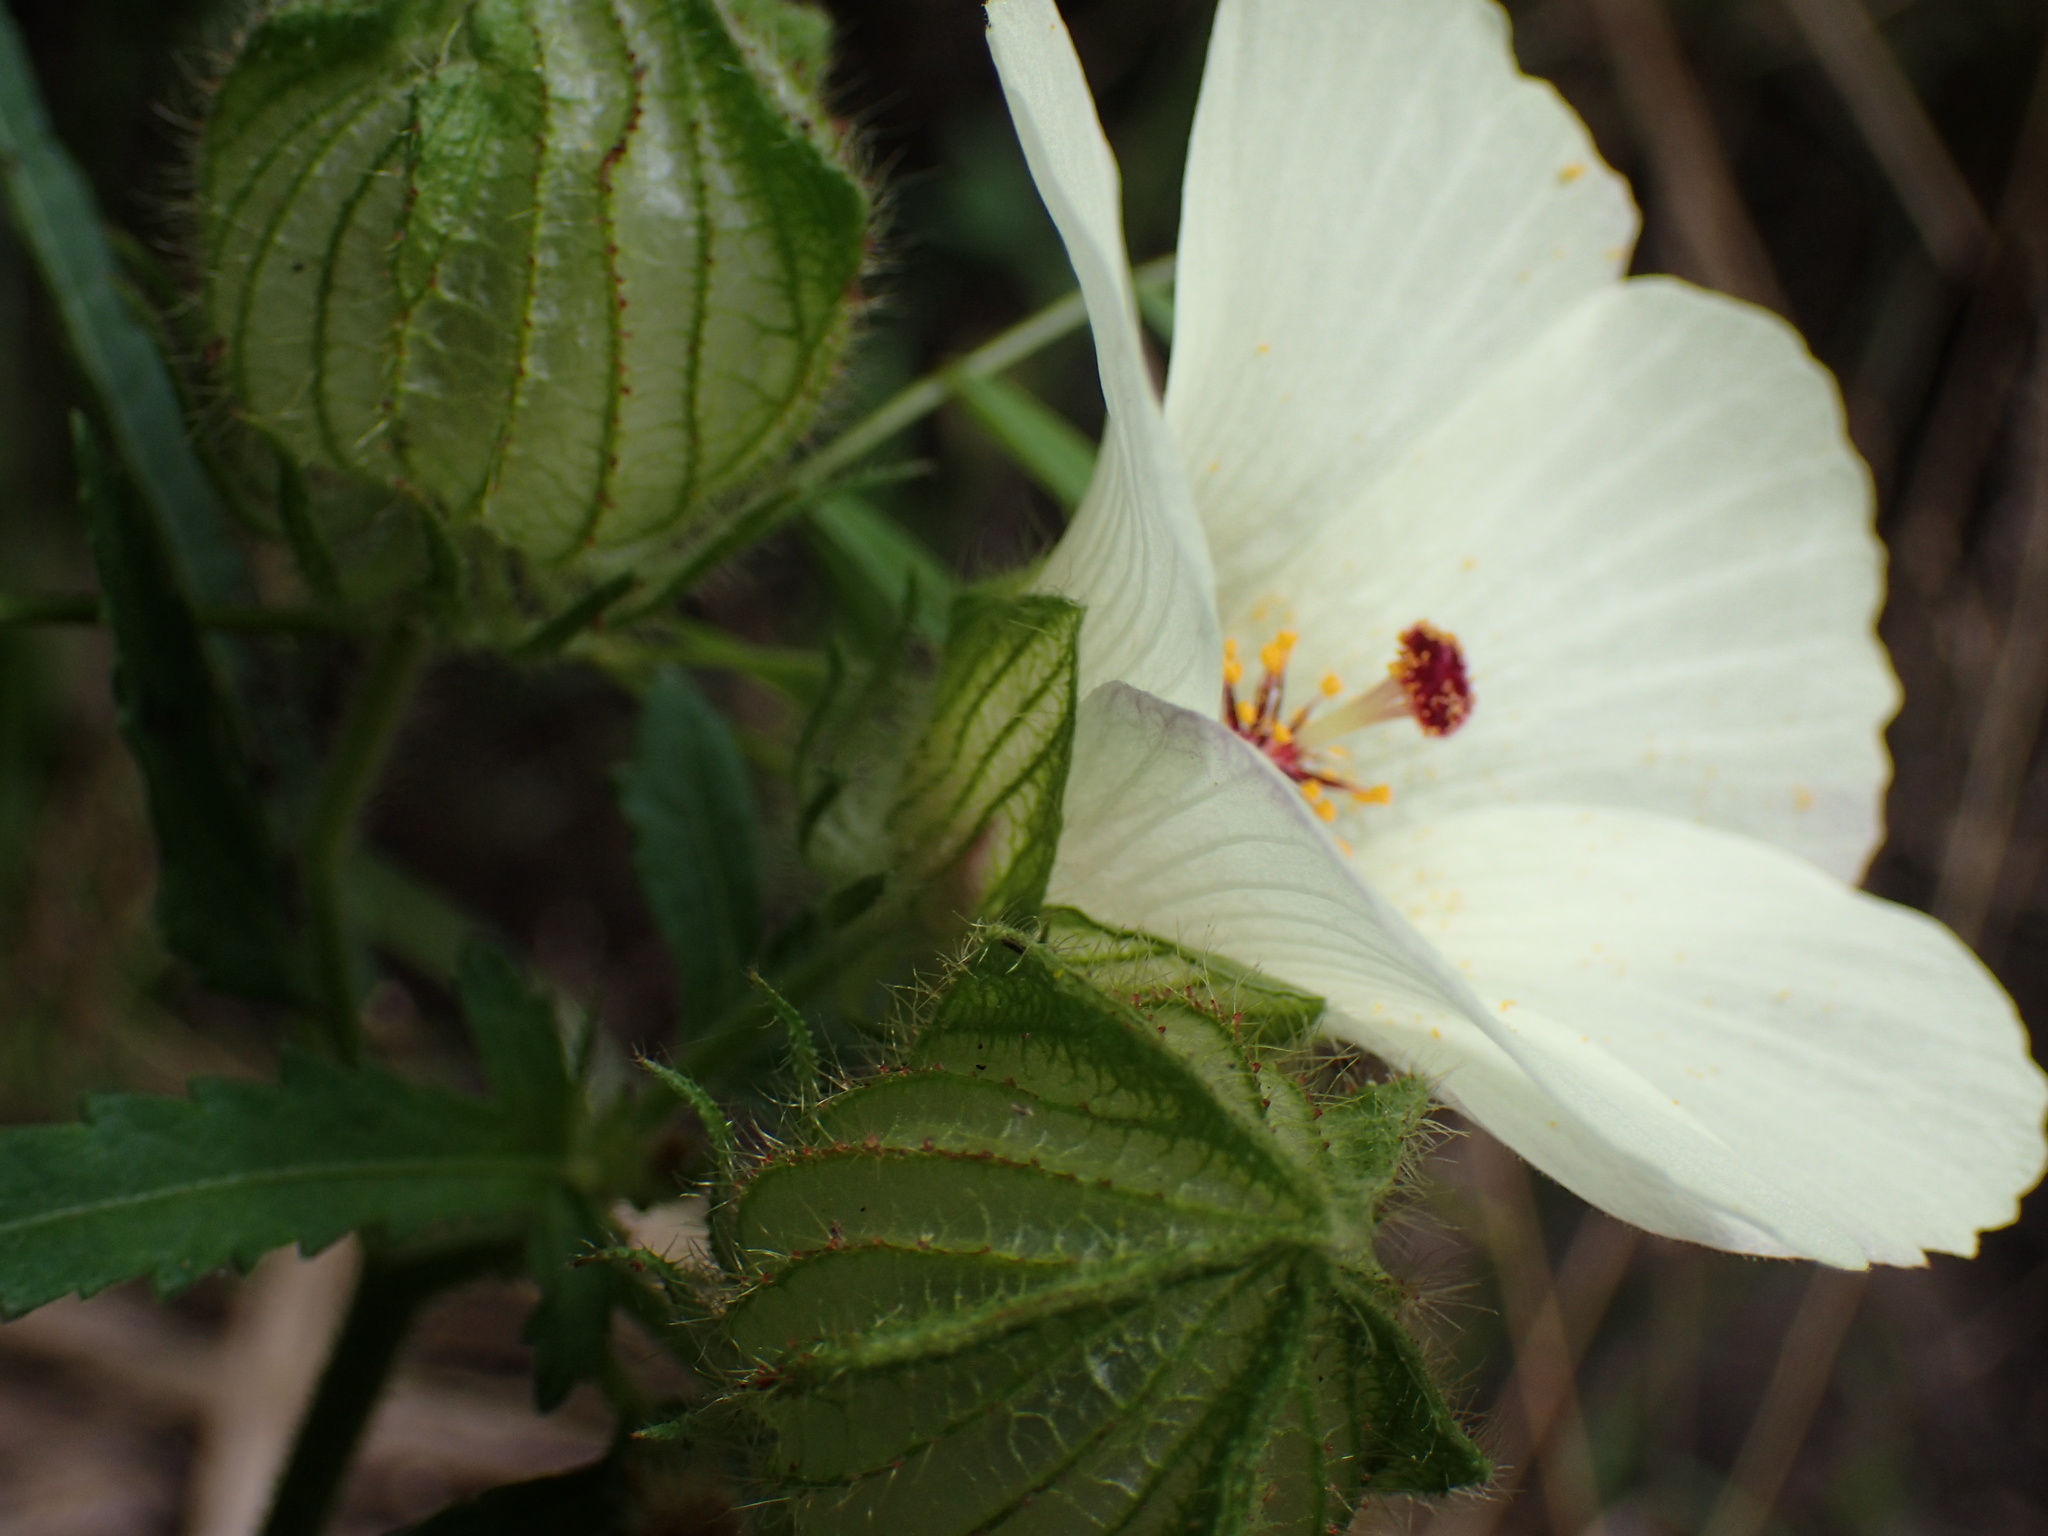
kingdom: Plantae
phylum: Tracheophyta
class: Magnoliopsida
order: Malvales
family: Malvaceae
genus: Hibiscus
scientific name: Hibiscus trionum
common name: Bladder ketmia
